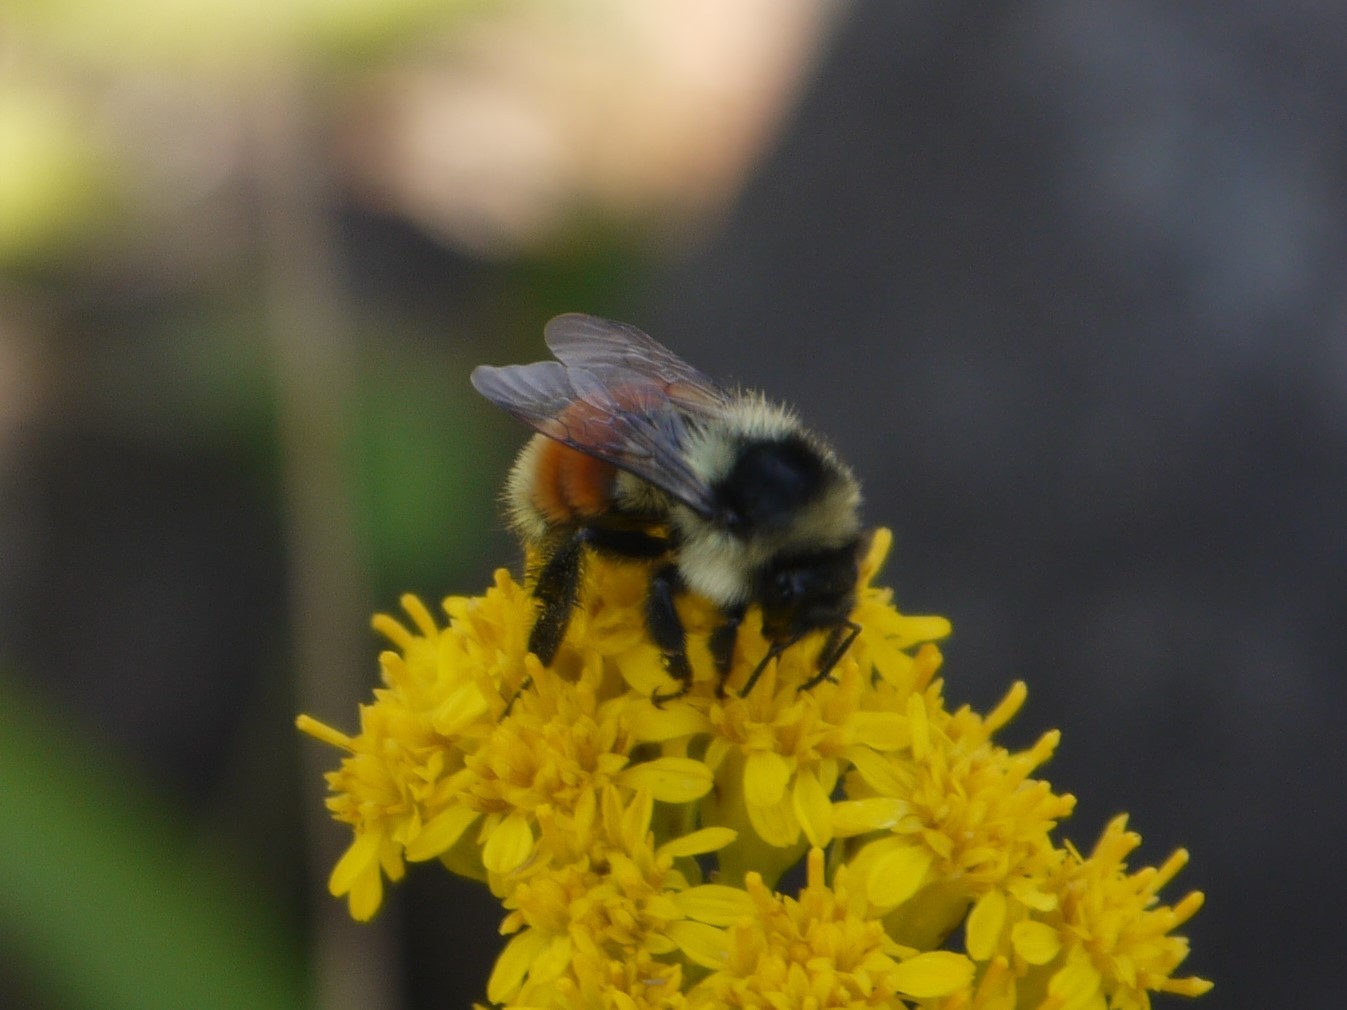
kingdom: Animalia
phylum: Arthropoda
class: Insecta
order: Hymenoptera
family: Apidae
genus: Bombus
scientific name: Bombus ternarius
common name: Tri-colored bumble bee
